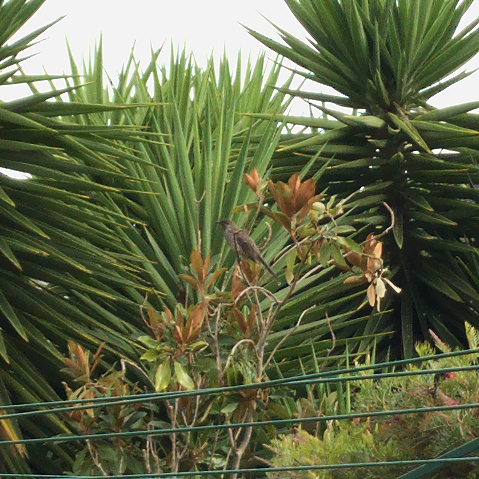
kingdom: Animalia
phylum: Chordata
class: Aves
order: Passeriformes
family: Meliphagidae
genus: Anthochaera
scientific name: Anthochaera chrysoptera
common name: Little wattlebird
